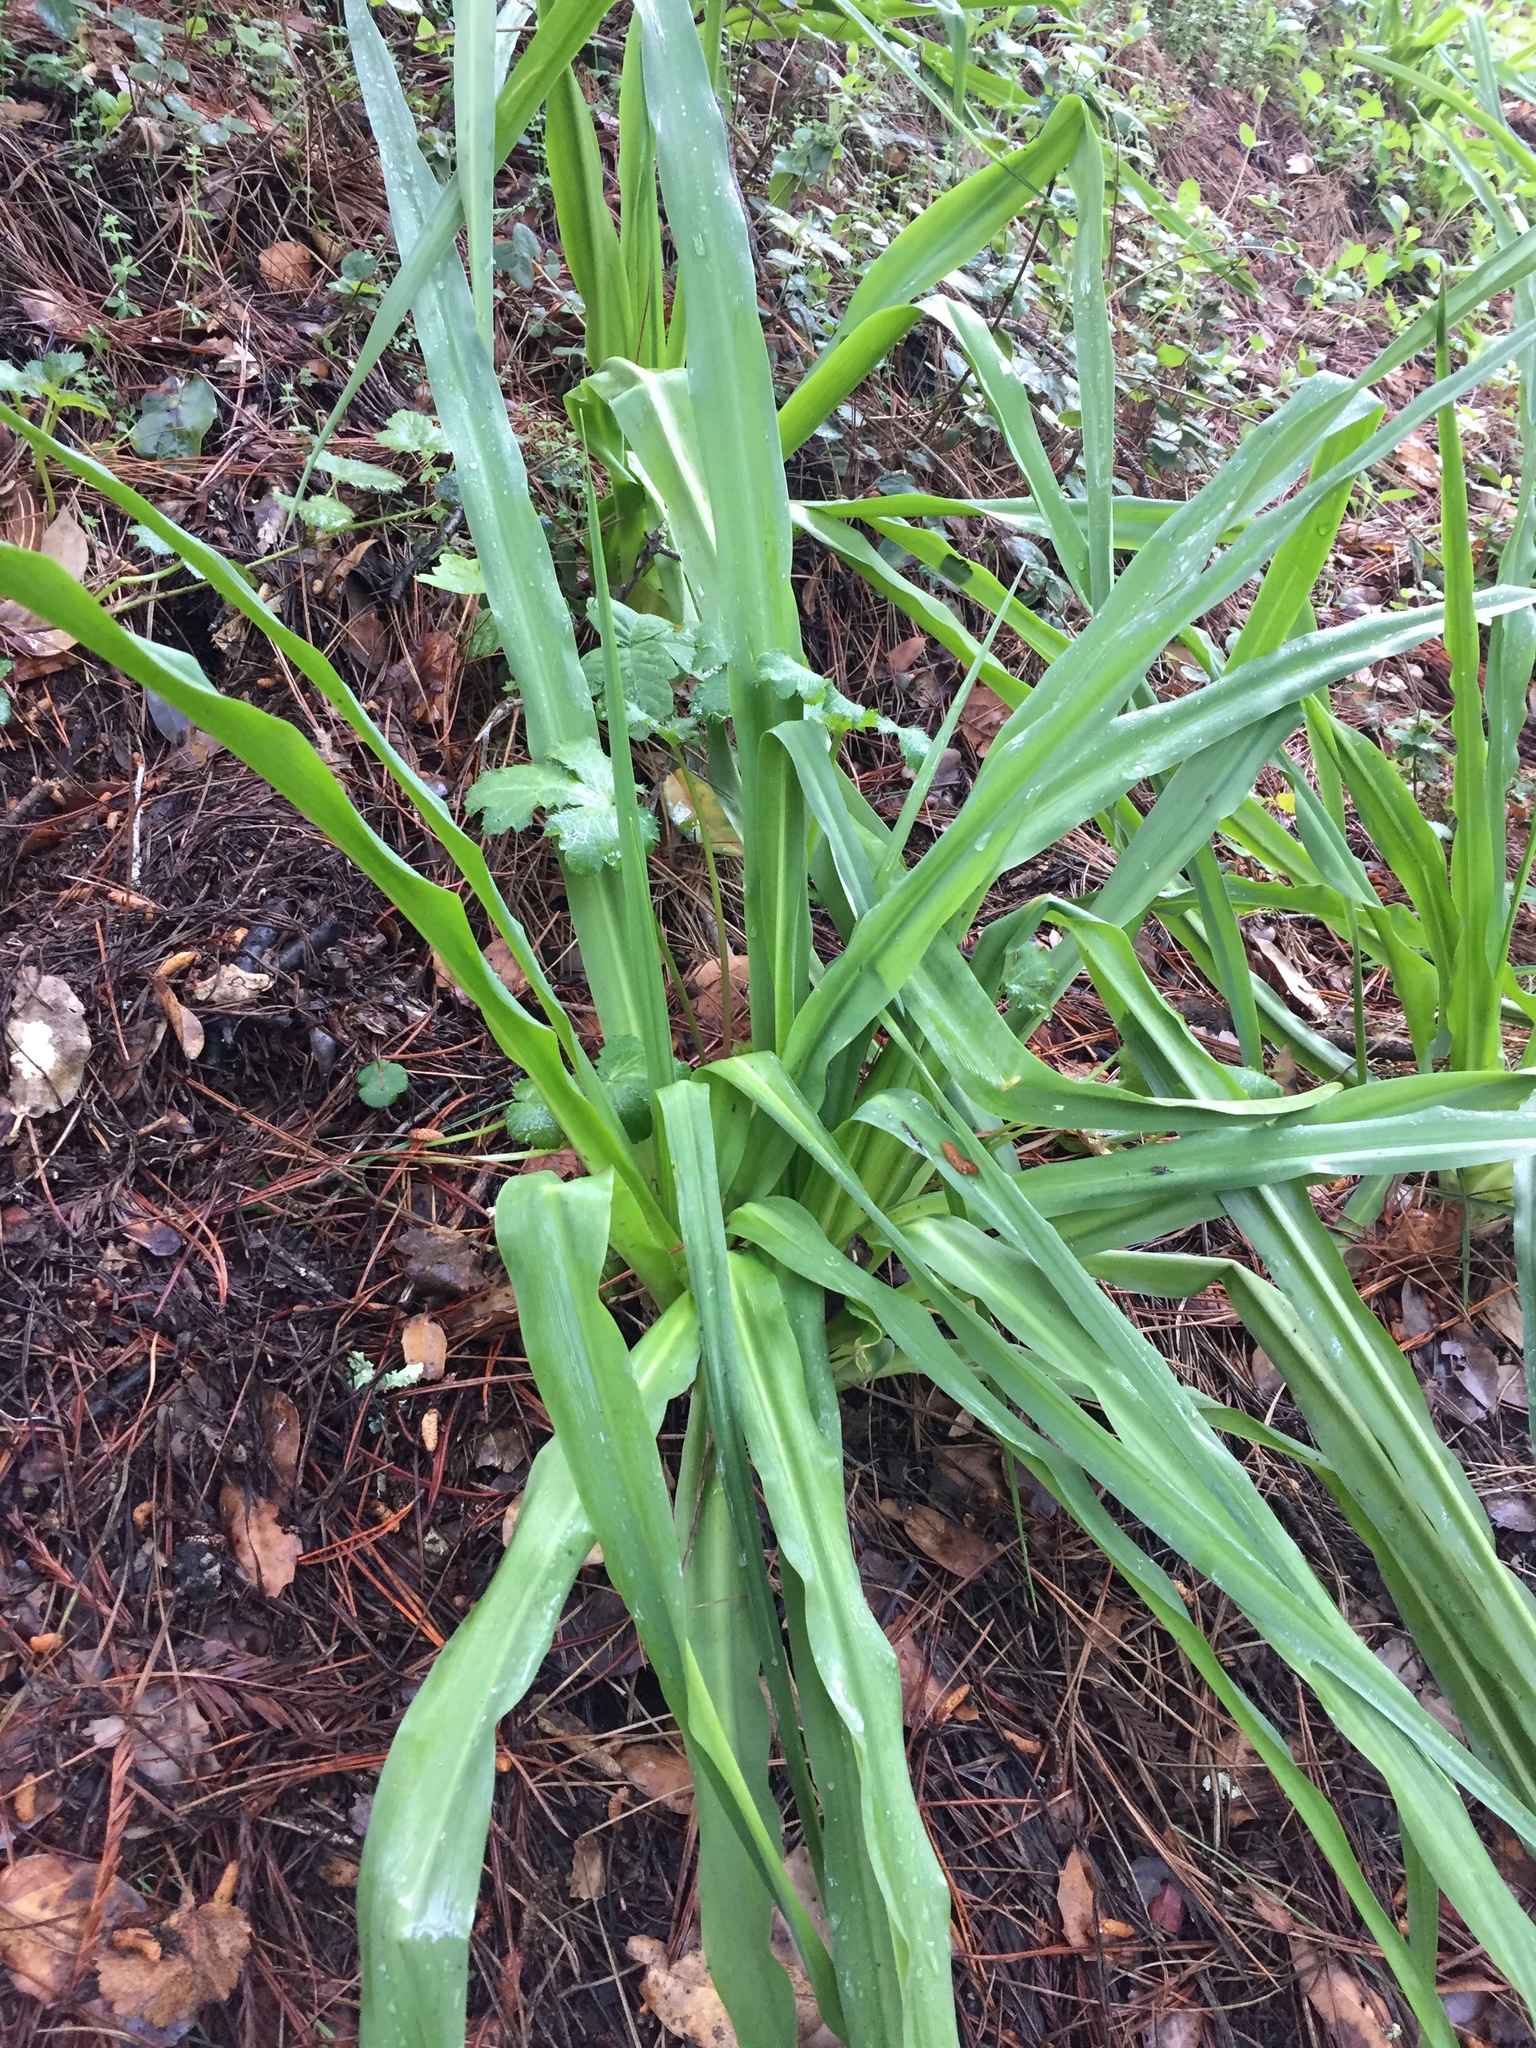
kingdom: Plantae
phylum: Tracheophyta
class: Liliopsida
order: Asparagales
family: Asparagaceae
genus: Chlorogalum
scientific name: Chlorogalum pomeridianum
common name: Amole
